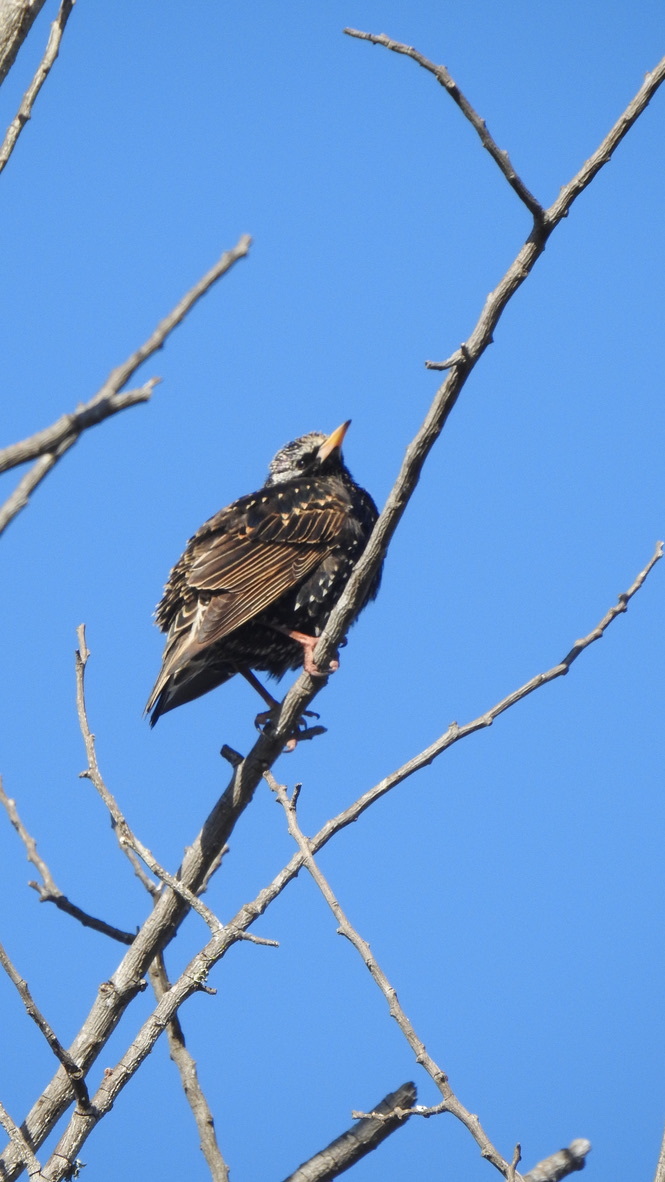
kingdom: Animalia
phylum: Chordata
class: Aves
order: Passeriformes
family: Sturnidae
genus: Sturnus
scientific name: Sturnus vulgaris
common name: Common starling
